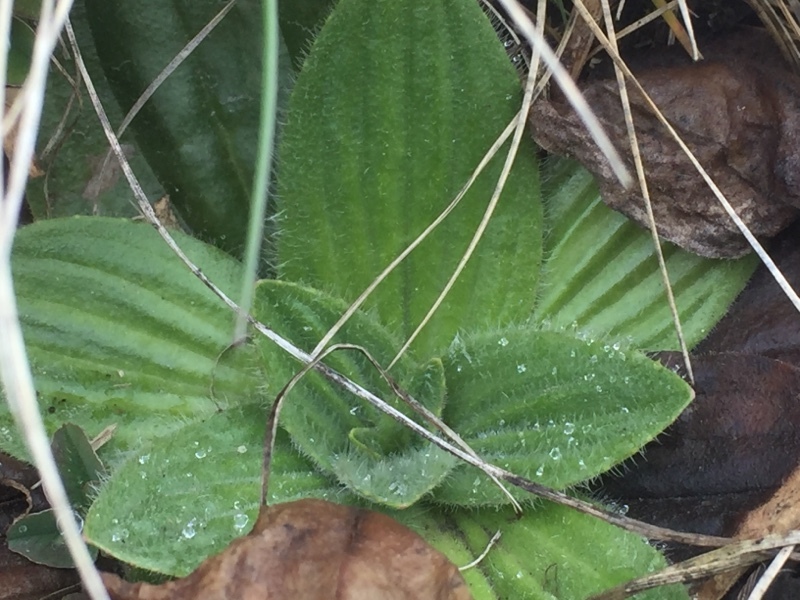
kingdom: Plantae
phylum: Tracheophyta
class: Magnoliopsida
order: Lamiales
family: Plantaginaceae
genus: Plantago
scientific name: Plantago media
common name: Hoary plantain
